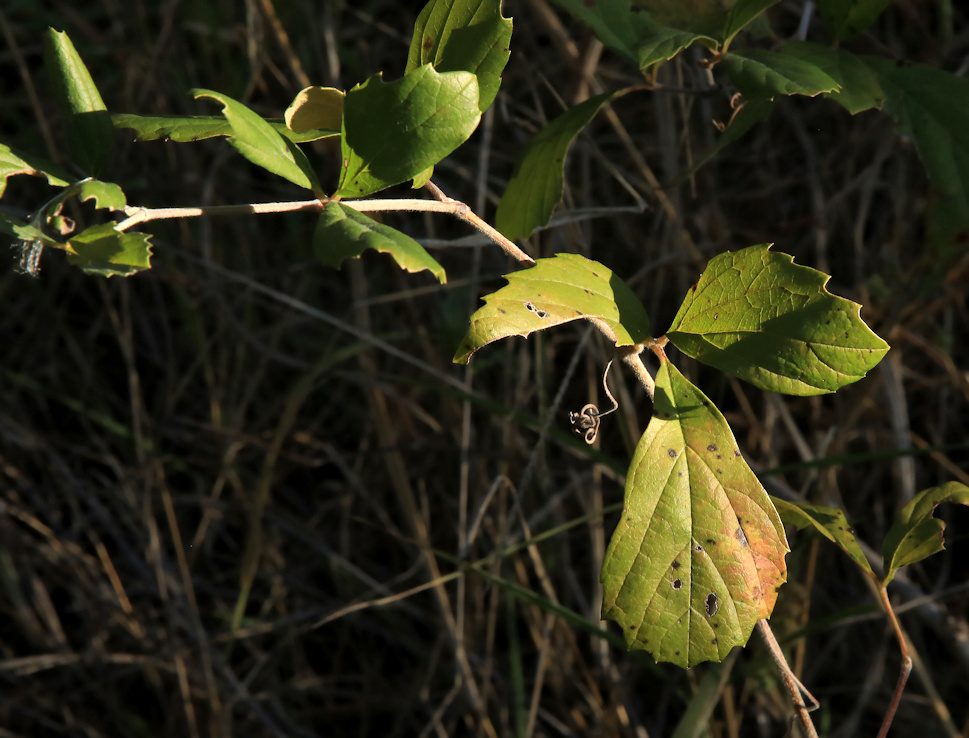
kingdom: Plantae
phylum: Tracheophyta
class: Magnoliopsida
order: Vitales
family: Vitaceae
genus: Rhoicissus
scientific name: Rhoicissus tridentata
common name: Common forest grape
